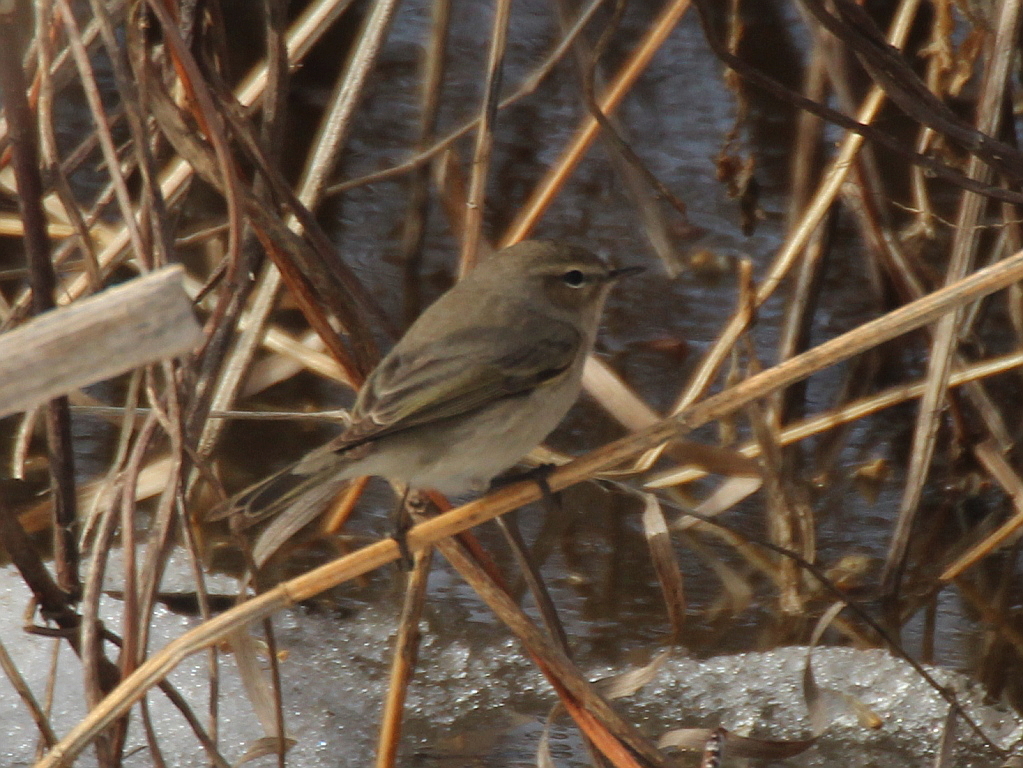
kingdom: Animalia
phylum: Chordata
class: Aves
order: Passeriformes
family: Phylloscopidae
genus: Phylloscopus
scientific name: Phylloscopus collybita
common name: Common chiffchaff
